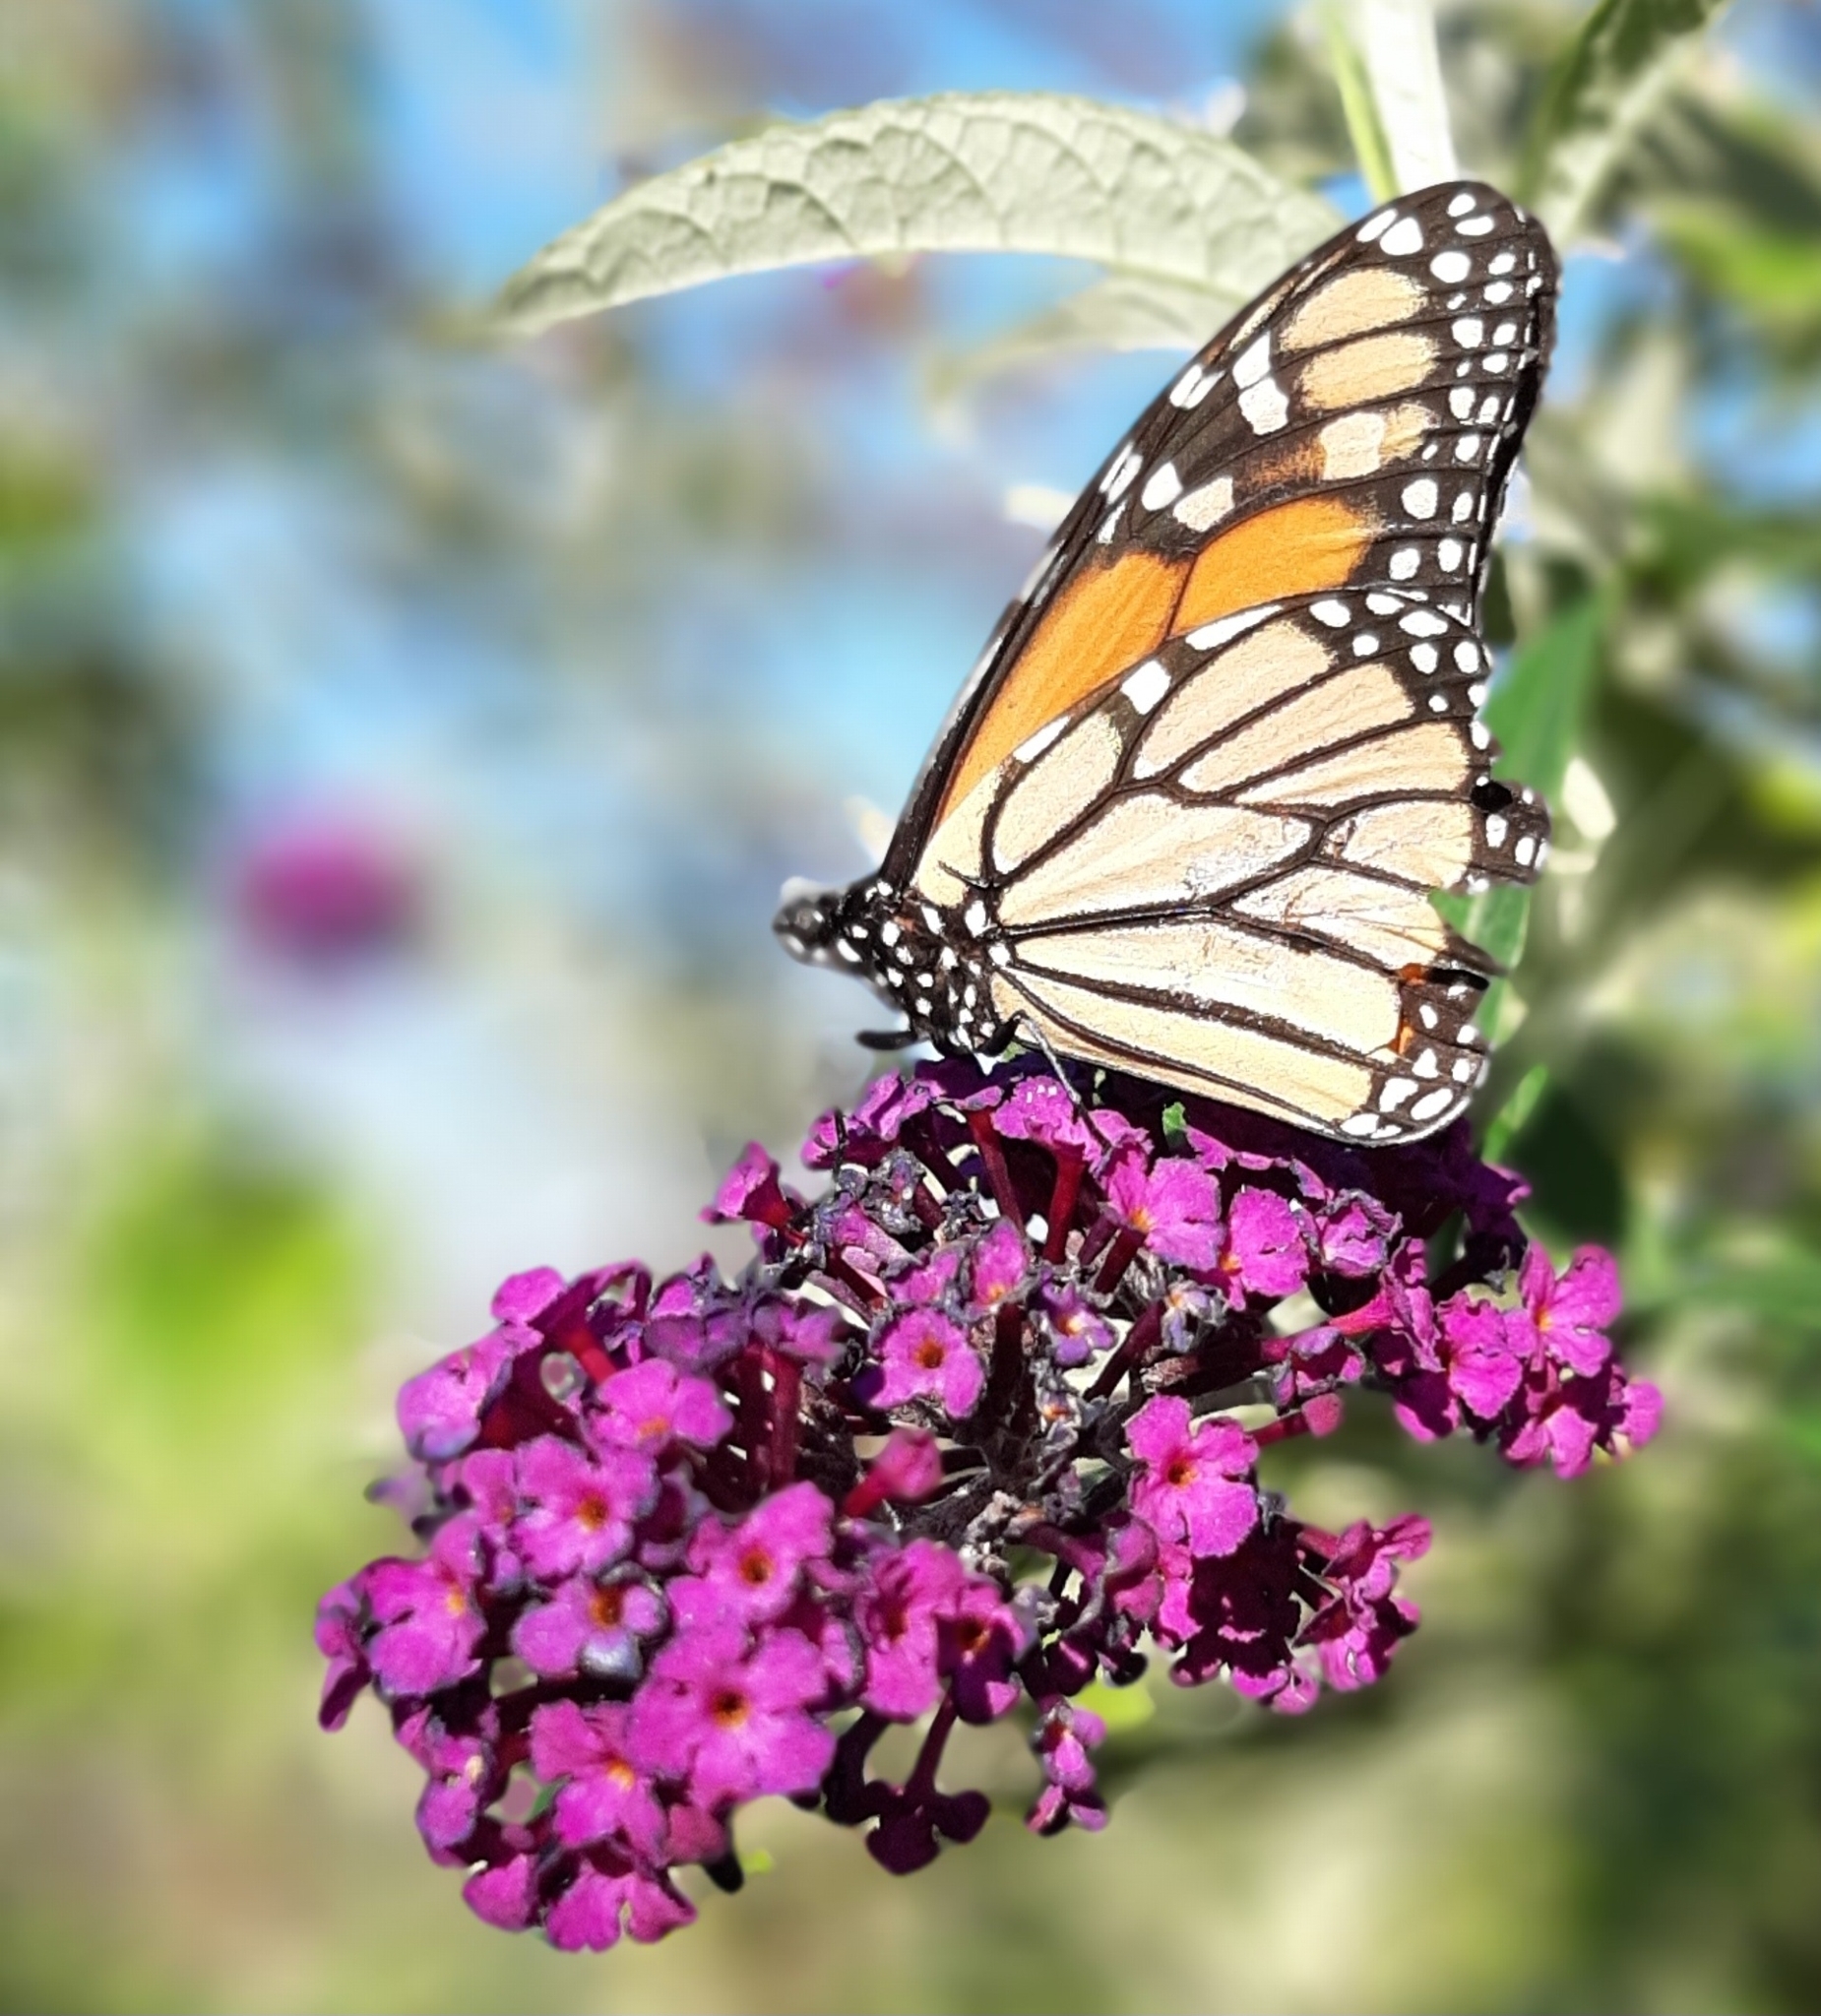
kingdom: Animalia
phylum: Arthropoda
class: Insecta
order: Lepidoptera
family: Nymphalidae
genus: Danaus
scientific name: Danaus plexippus
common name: Monarch
